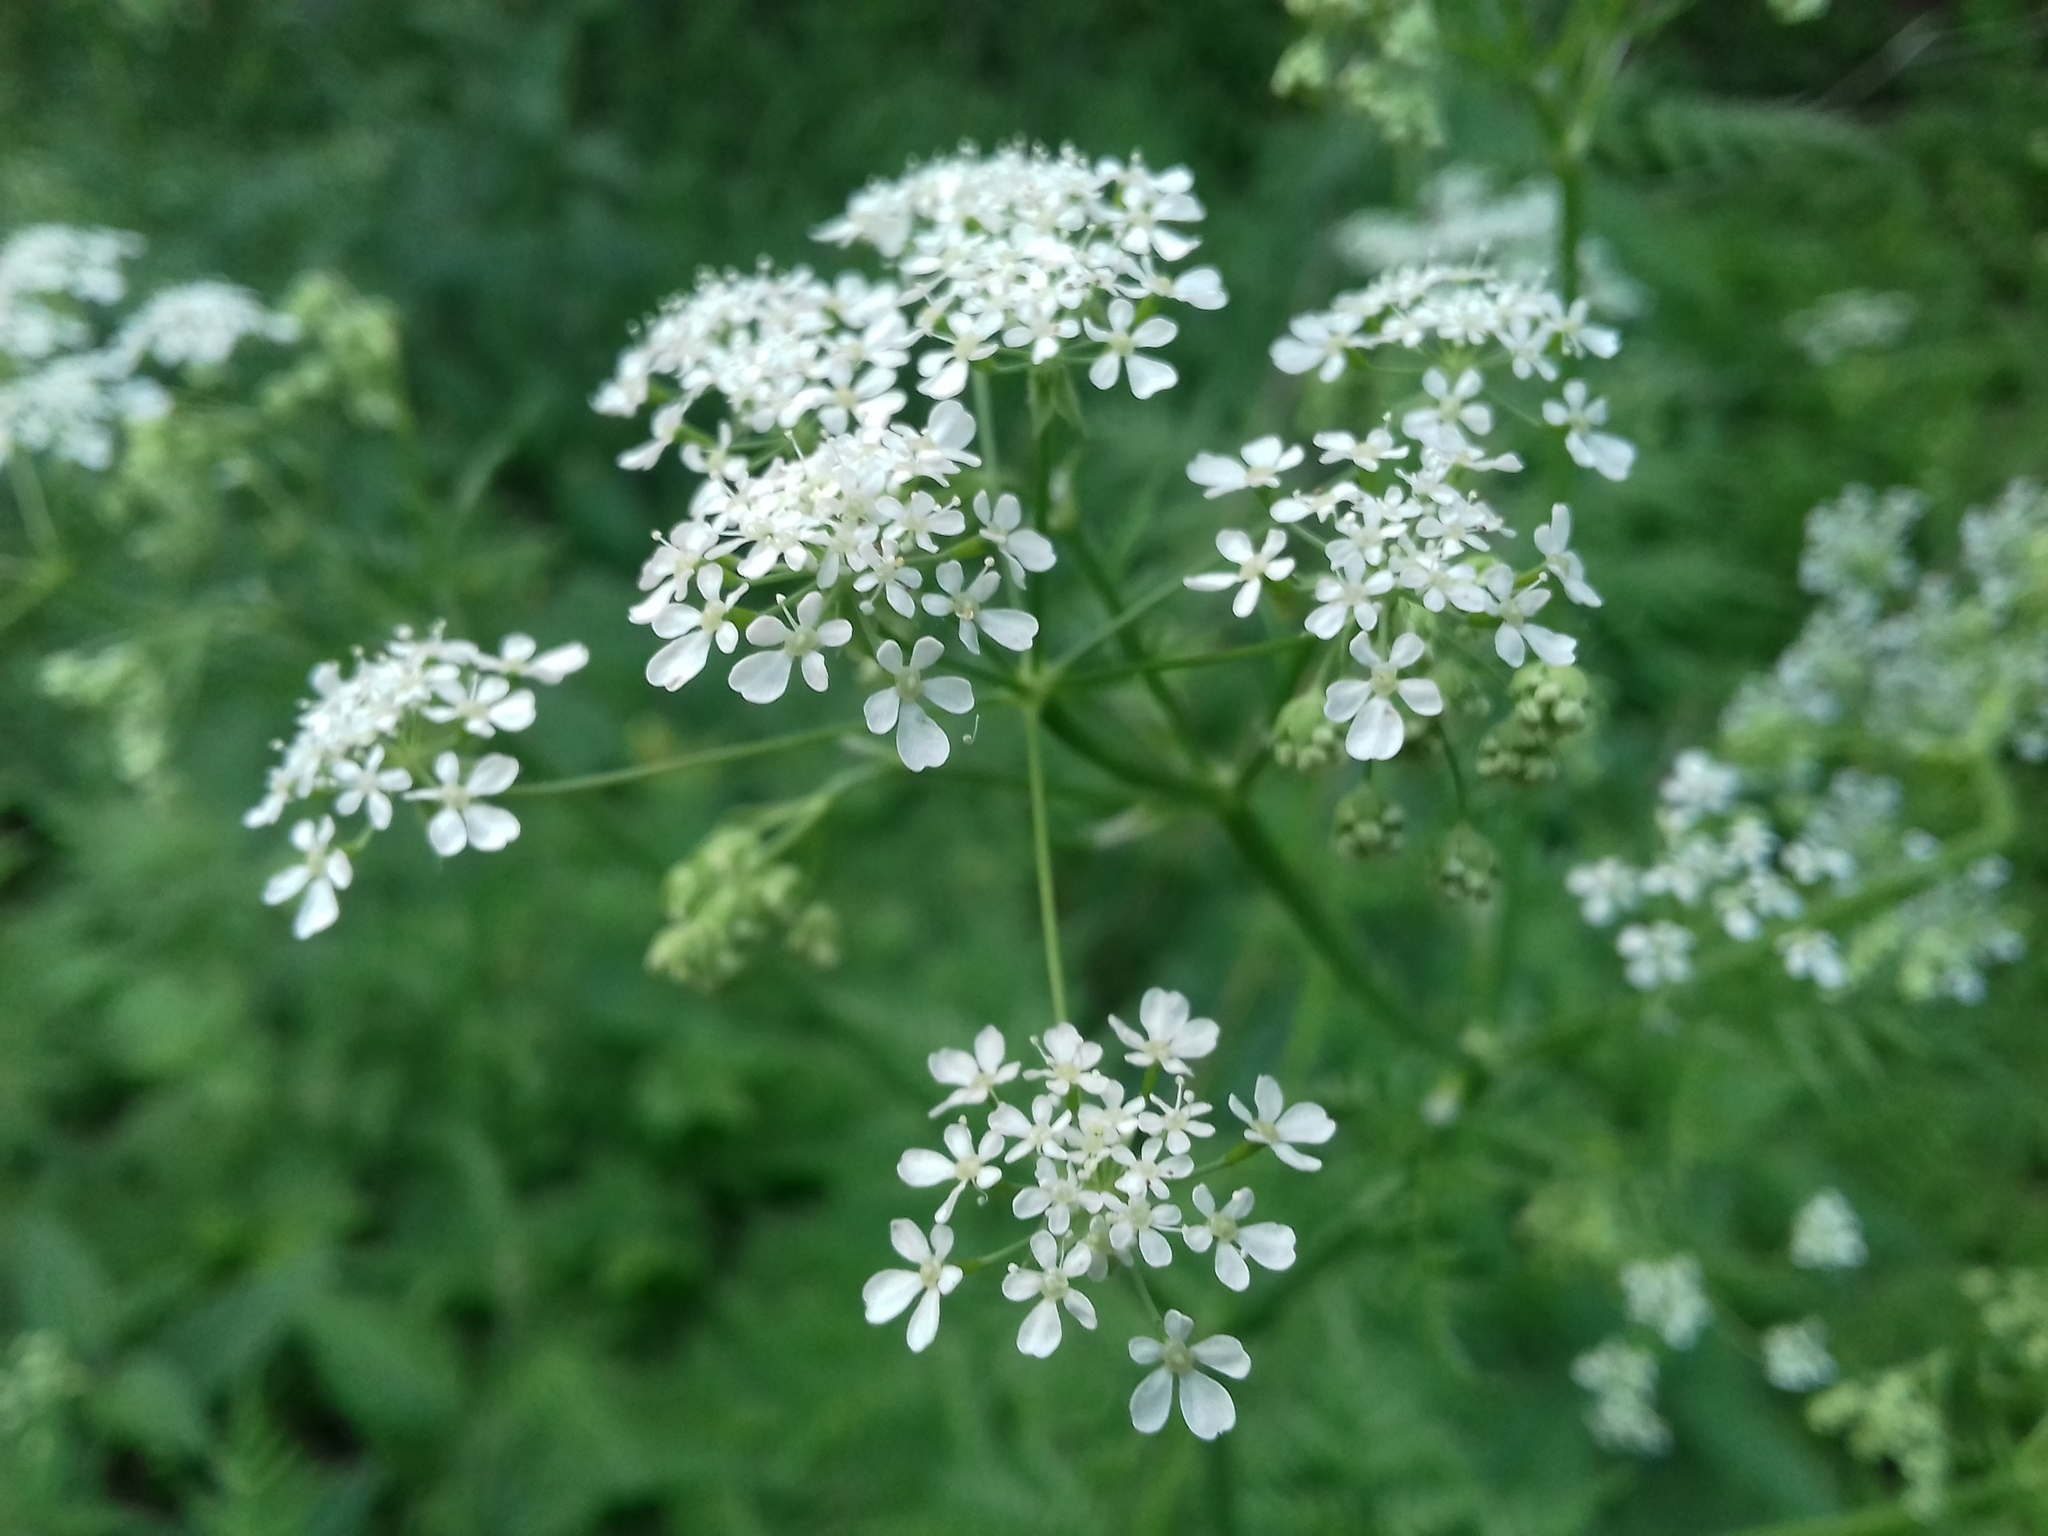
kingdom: Plantae
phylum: Tracheophyta
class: Magnoliopsida
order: Apiales
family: Apiaceae
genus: Anthriscus
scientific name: Anthriscus sylvestris
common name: Cow parsley
